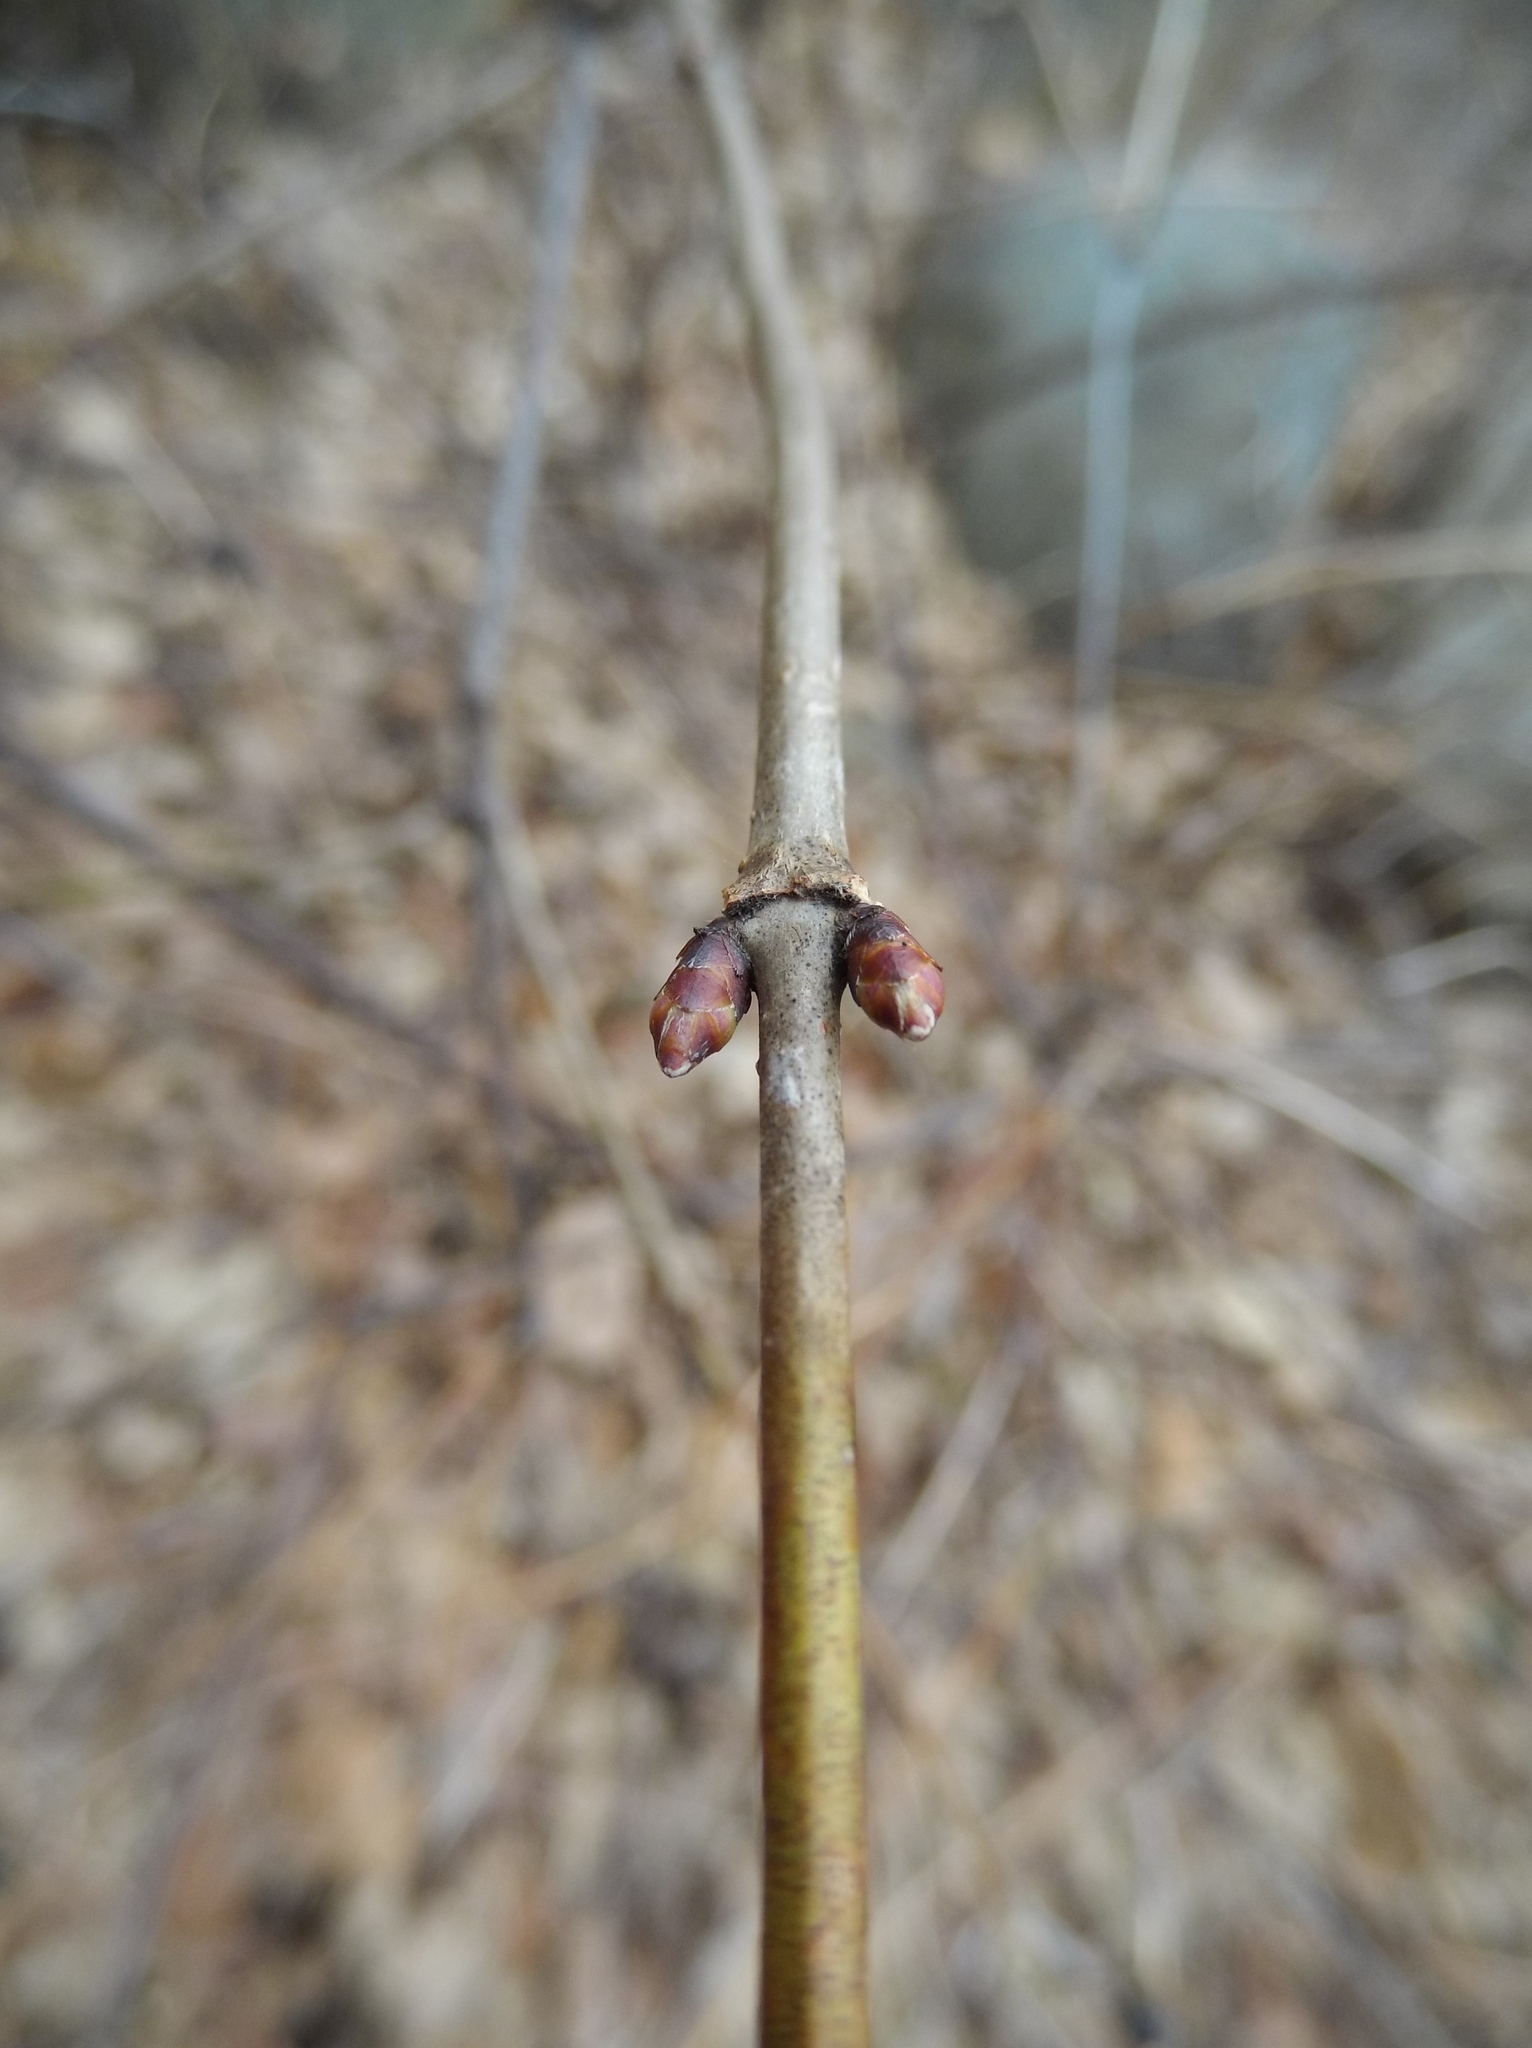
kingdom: Plantae
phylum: Tracheophyta
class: Magnoliopsida
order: Rosales
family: Rosaceae
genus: Rhodotypos
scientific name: Rhodotypos scandens
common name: Jetbead
